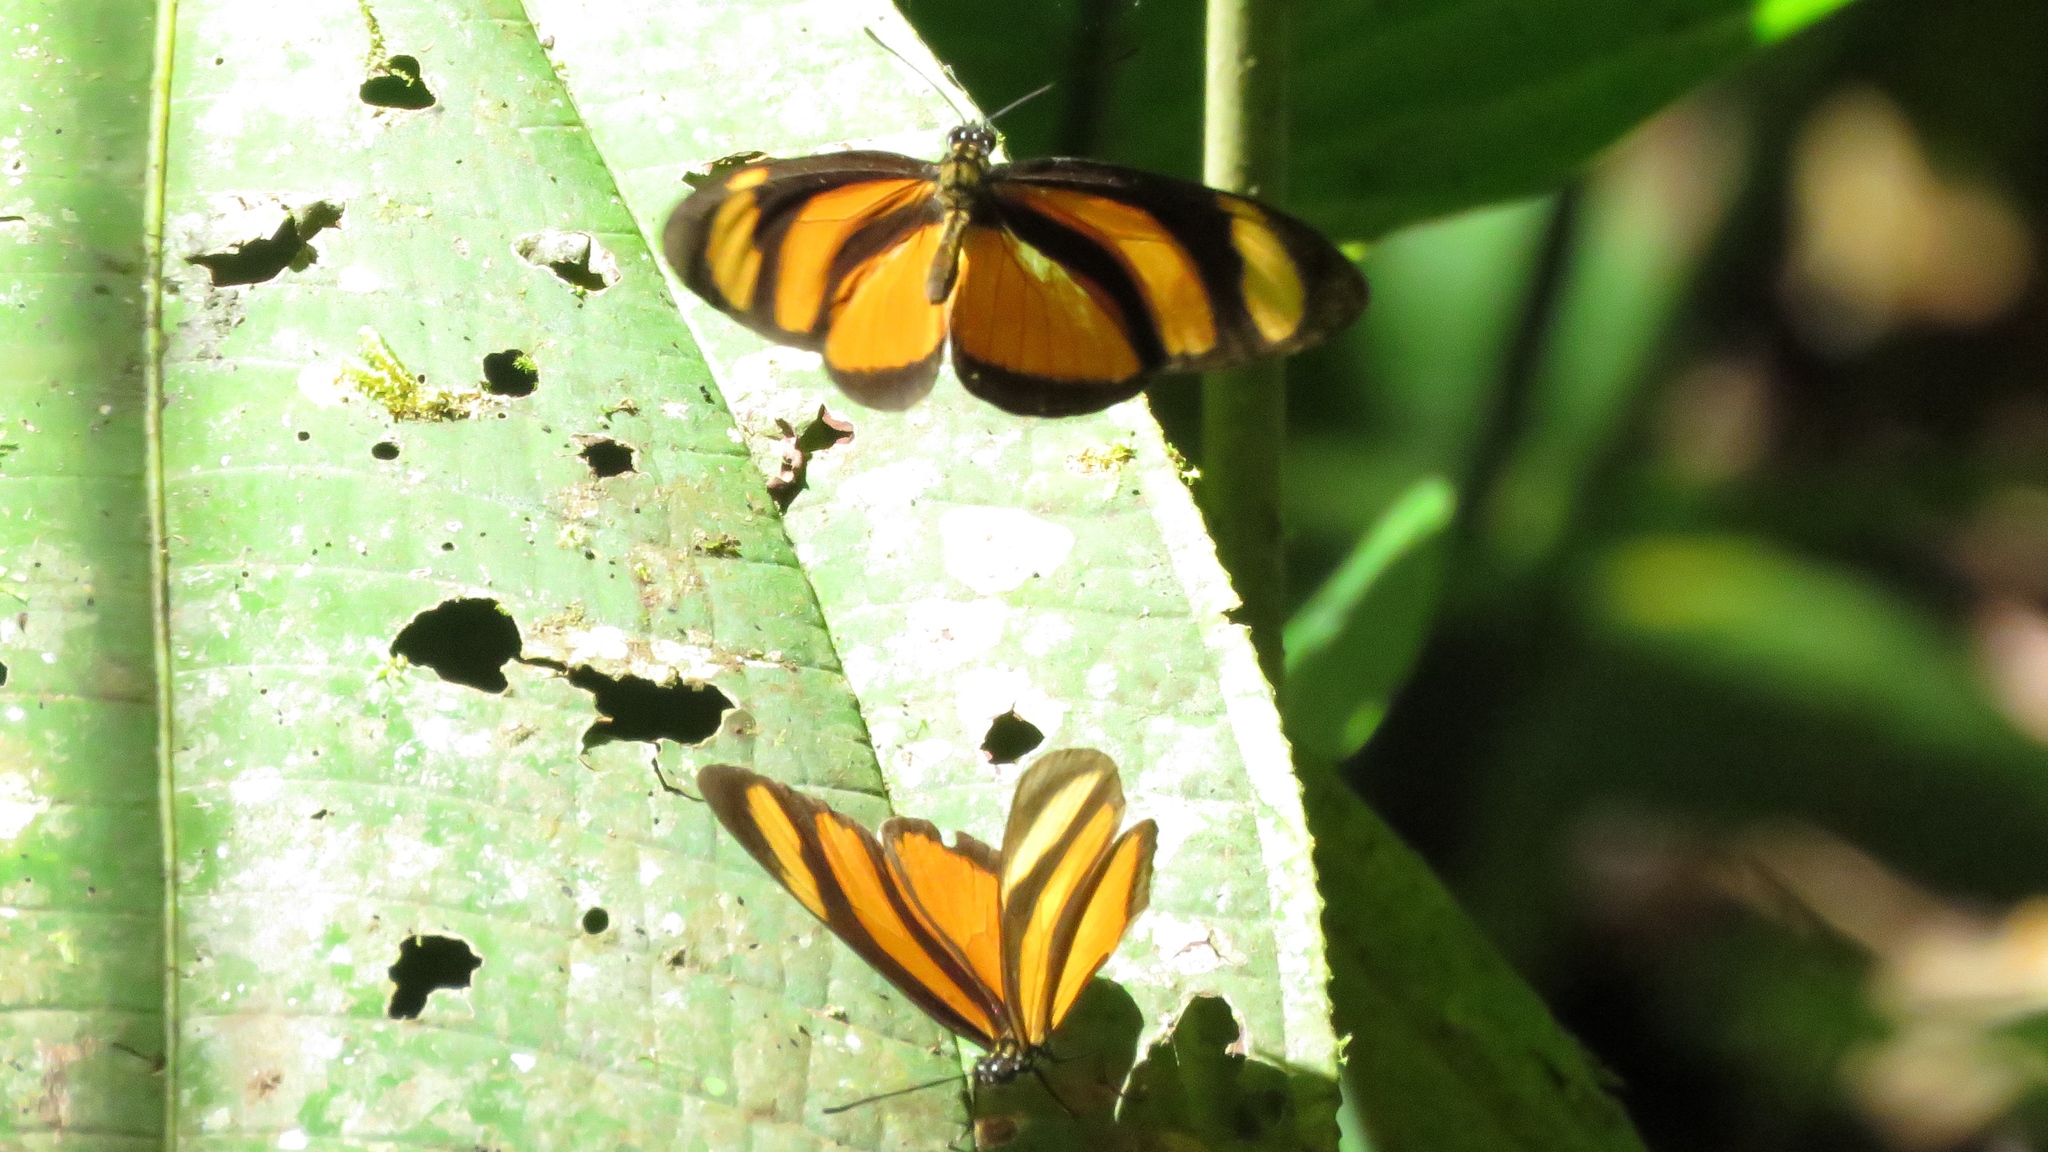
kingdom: Animalia
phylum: Arthropoda
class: Insecta
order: Lepidoptera
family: Nymphalidae
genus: Eueides
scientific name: Eueides olympia
